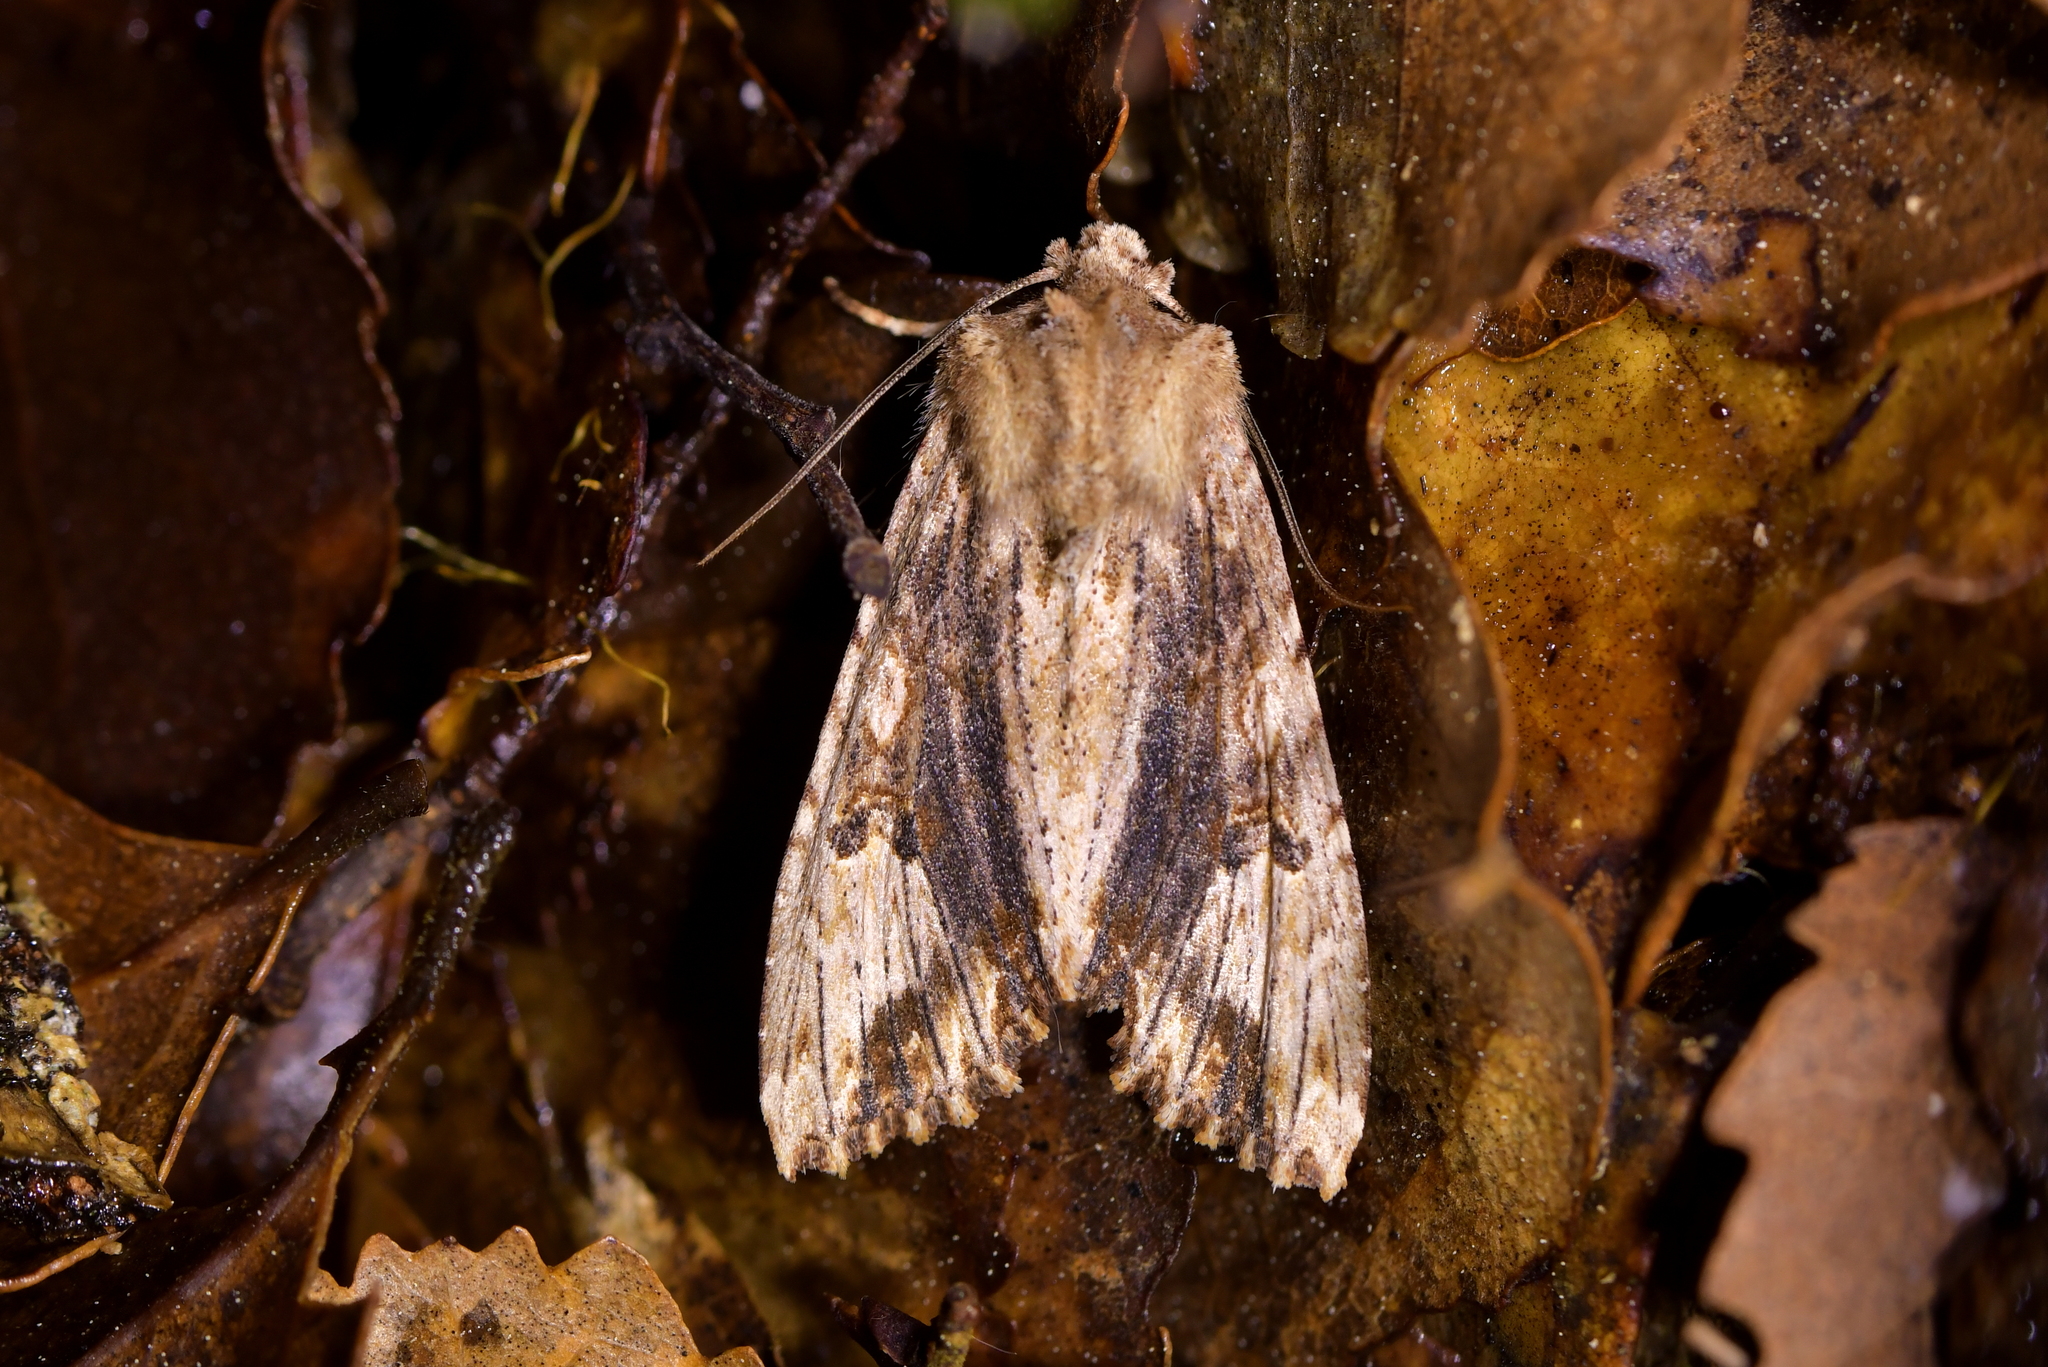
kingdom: Animalia
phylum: Arthropoda
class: Insecta
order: Lepidoptera
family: Noctuidae
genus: Meterana
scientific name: Meterana pascoei
